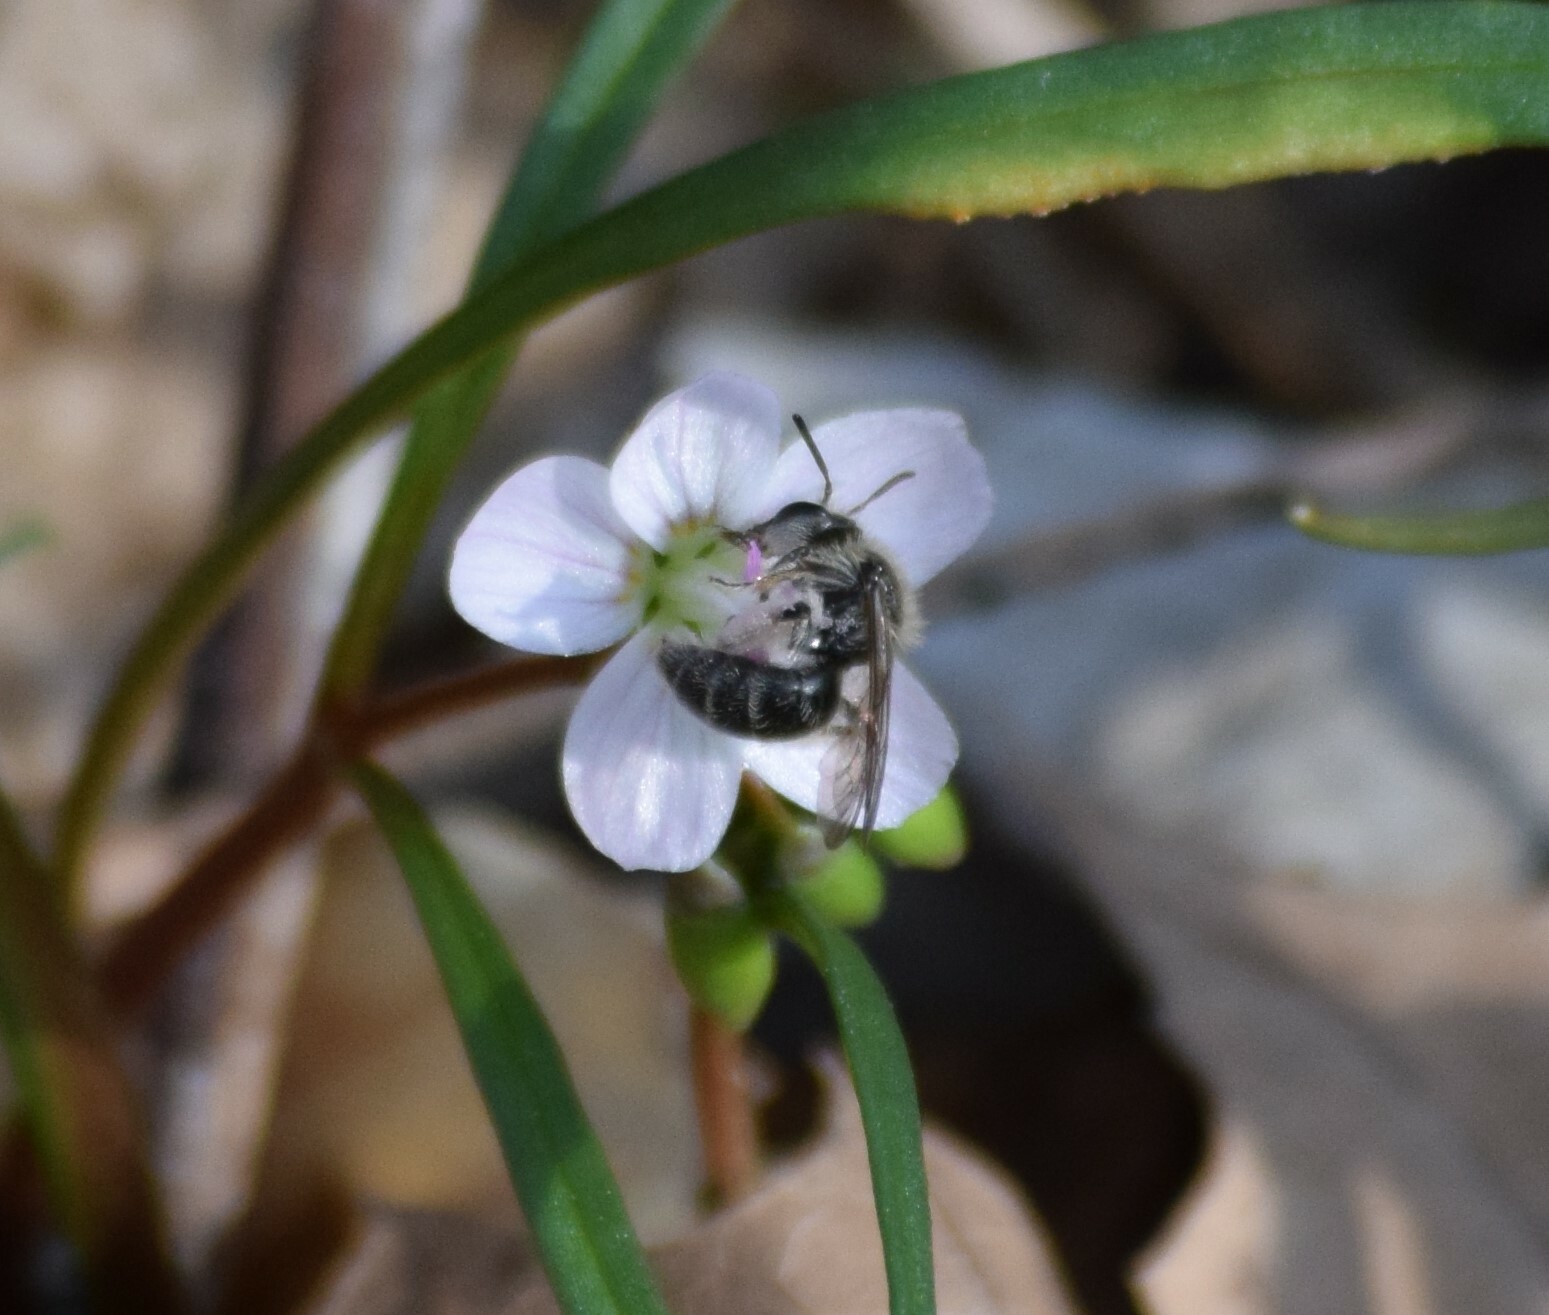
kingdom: Animalia
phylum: Arthropoda
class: Insecta
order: Hymenoptera
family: Andrenidae
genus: Andrena
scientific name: Andrena erigeniae
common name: Spring beauty miner
